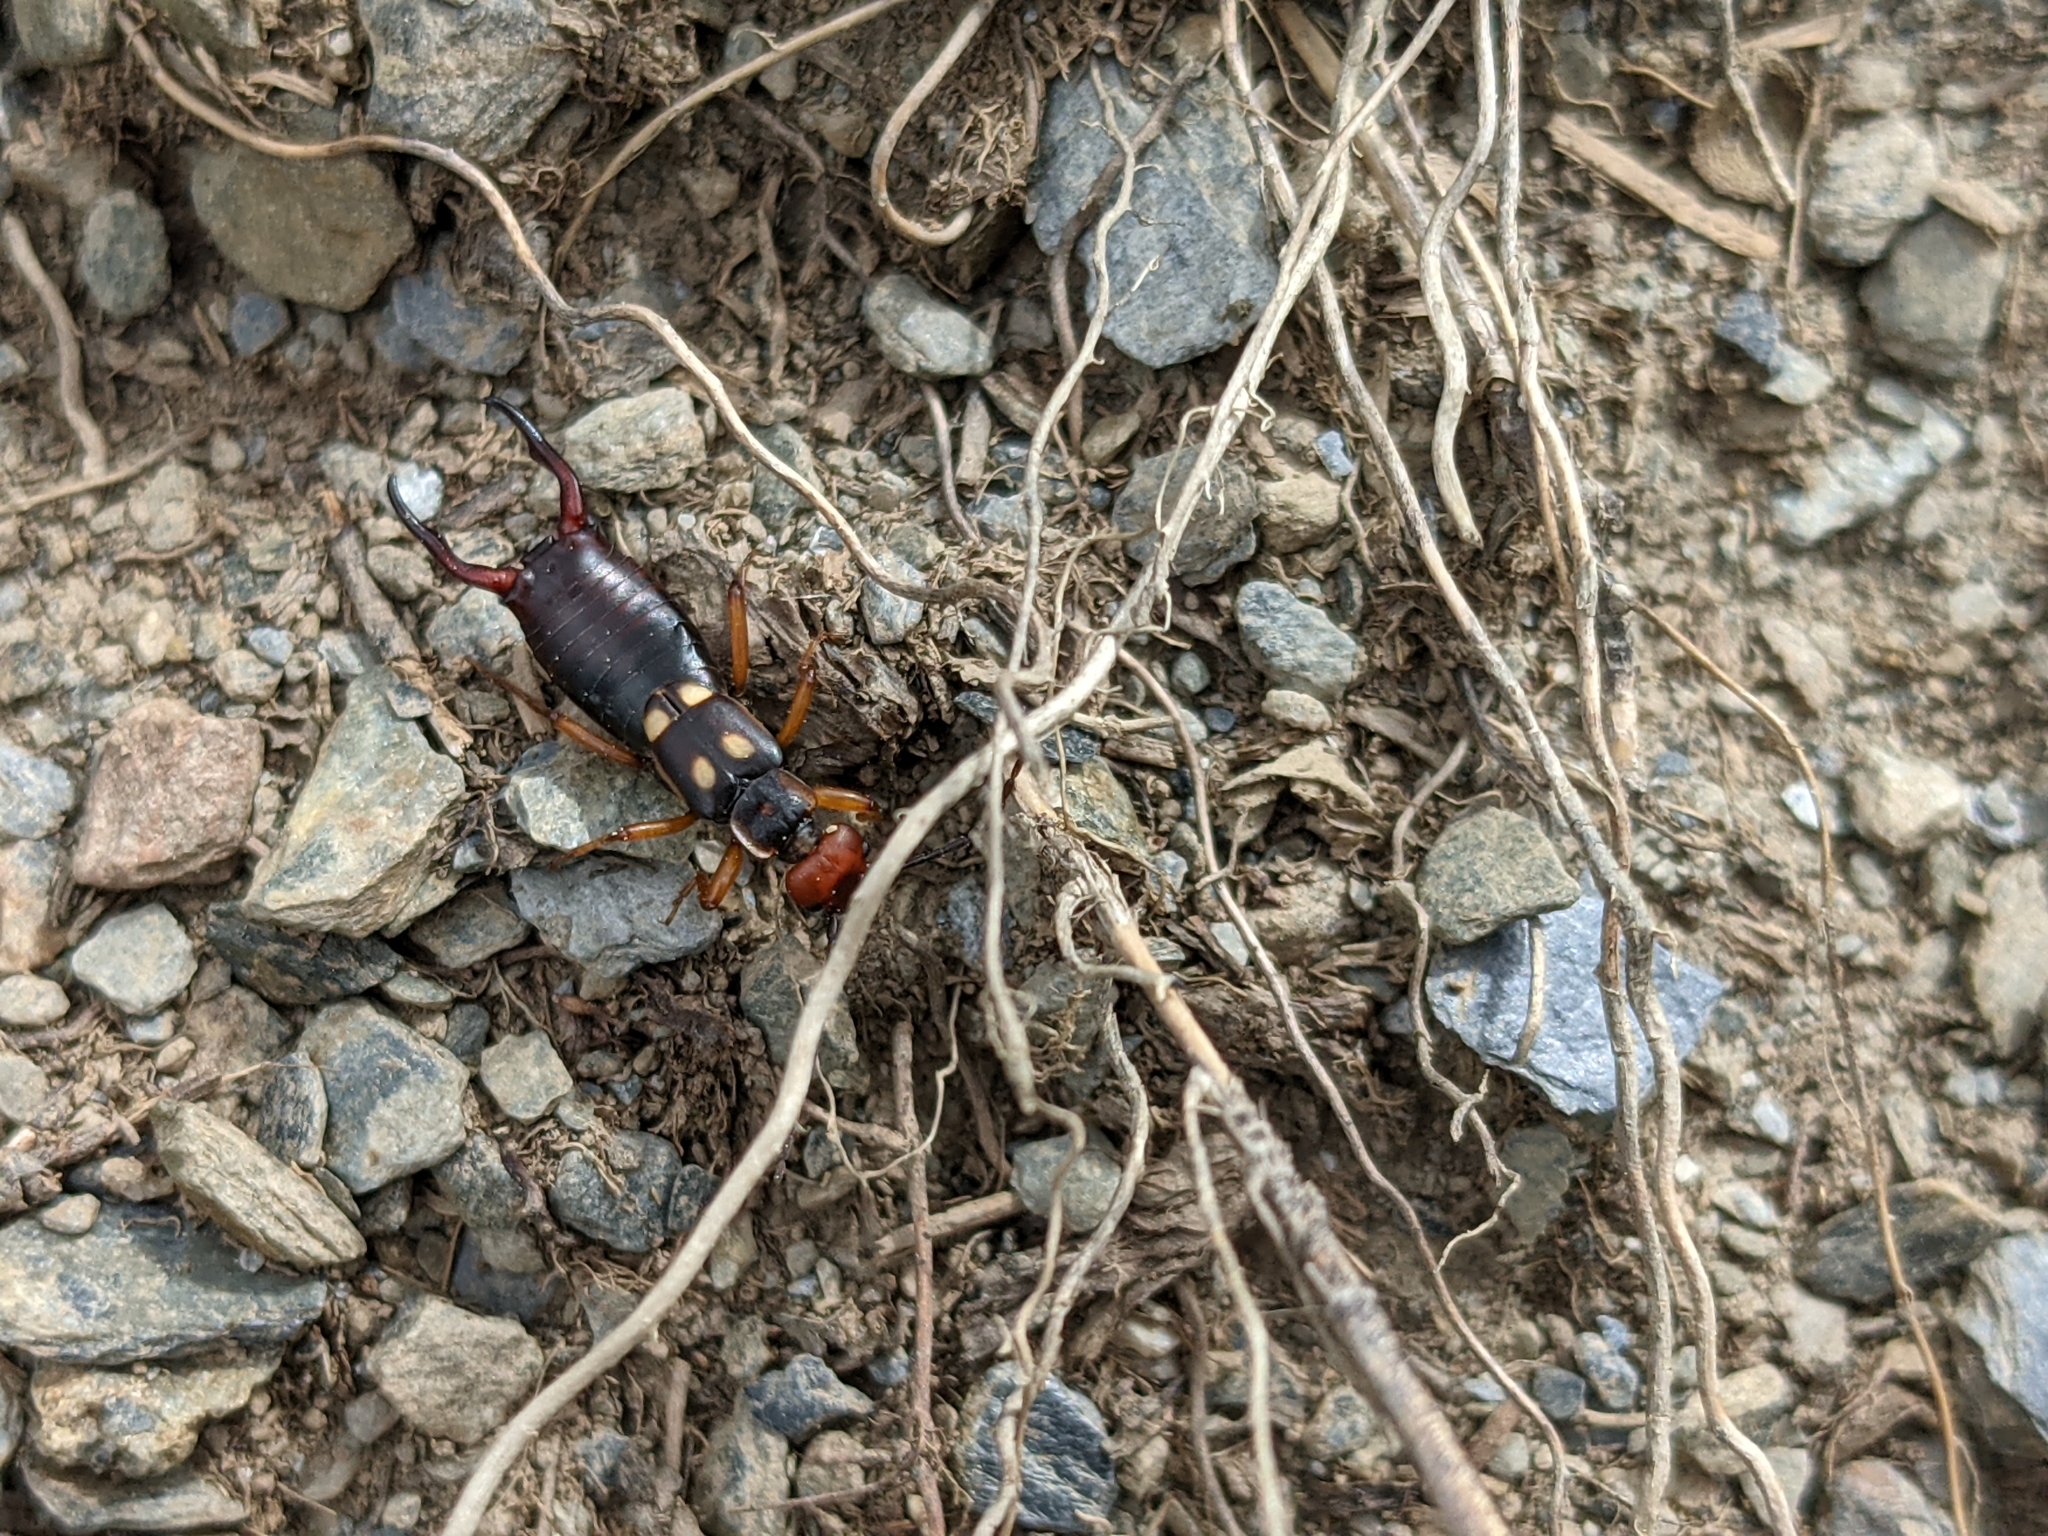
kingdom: Animalia
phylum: Arthropoda
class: Insecta
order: Dermaptera
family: Forficulidae
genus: Anechura
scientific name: Anechura bipunctata
